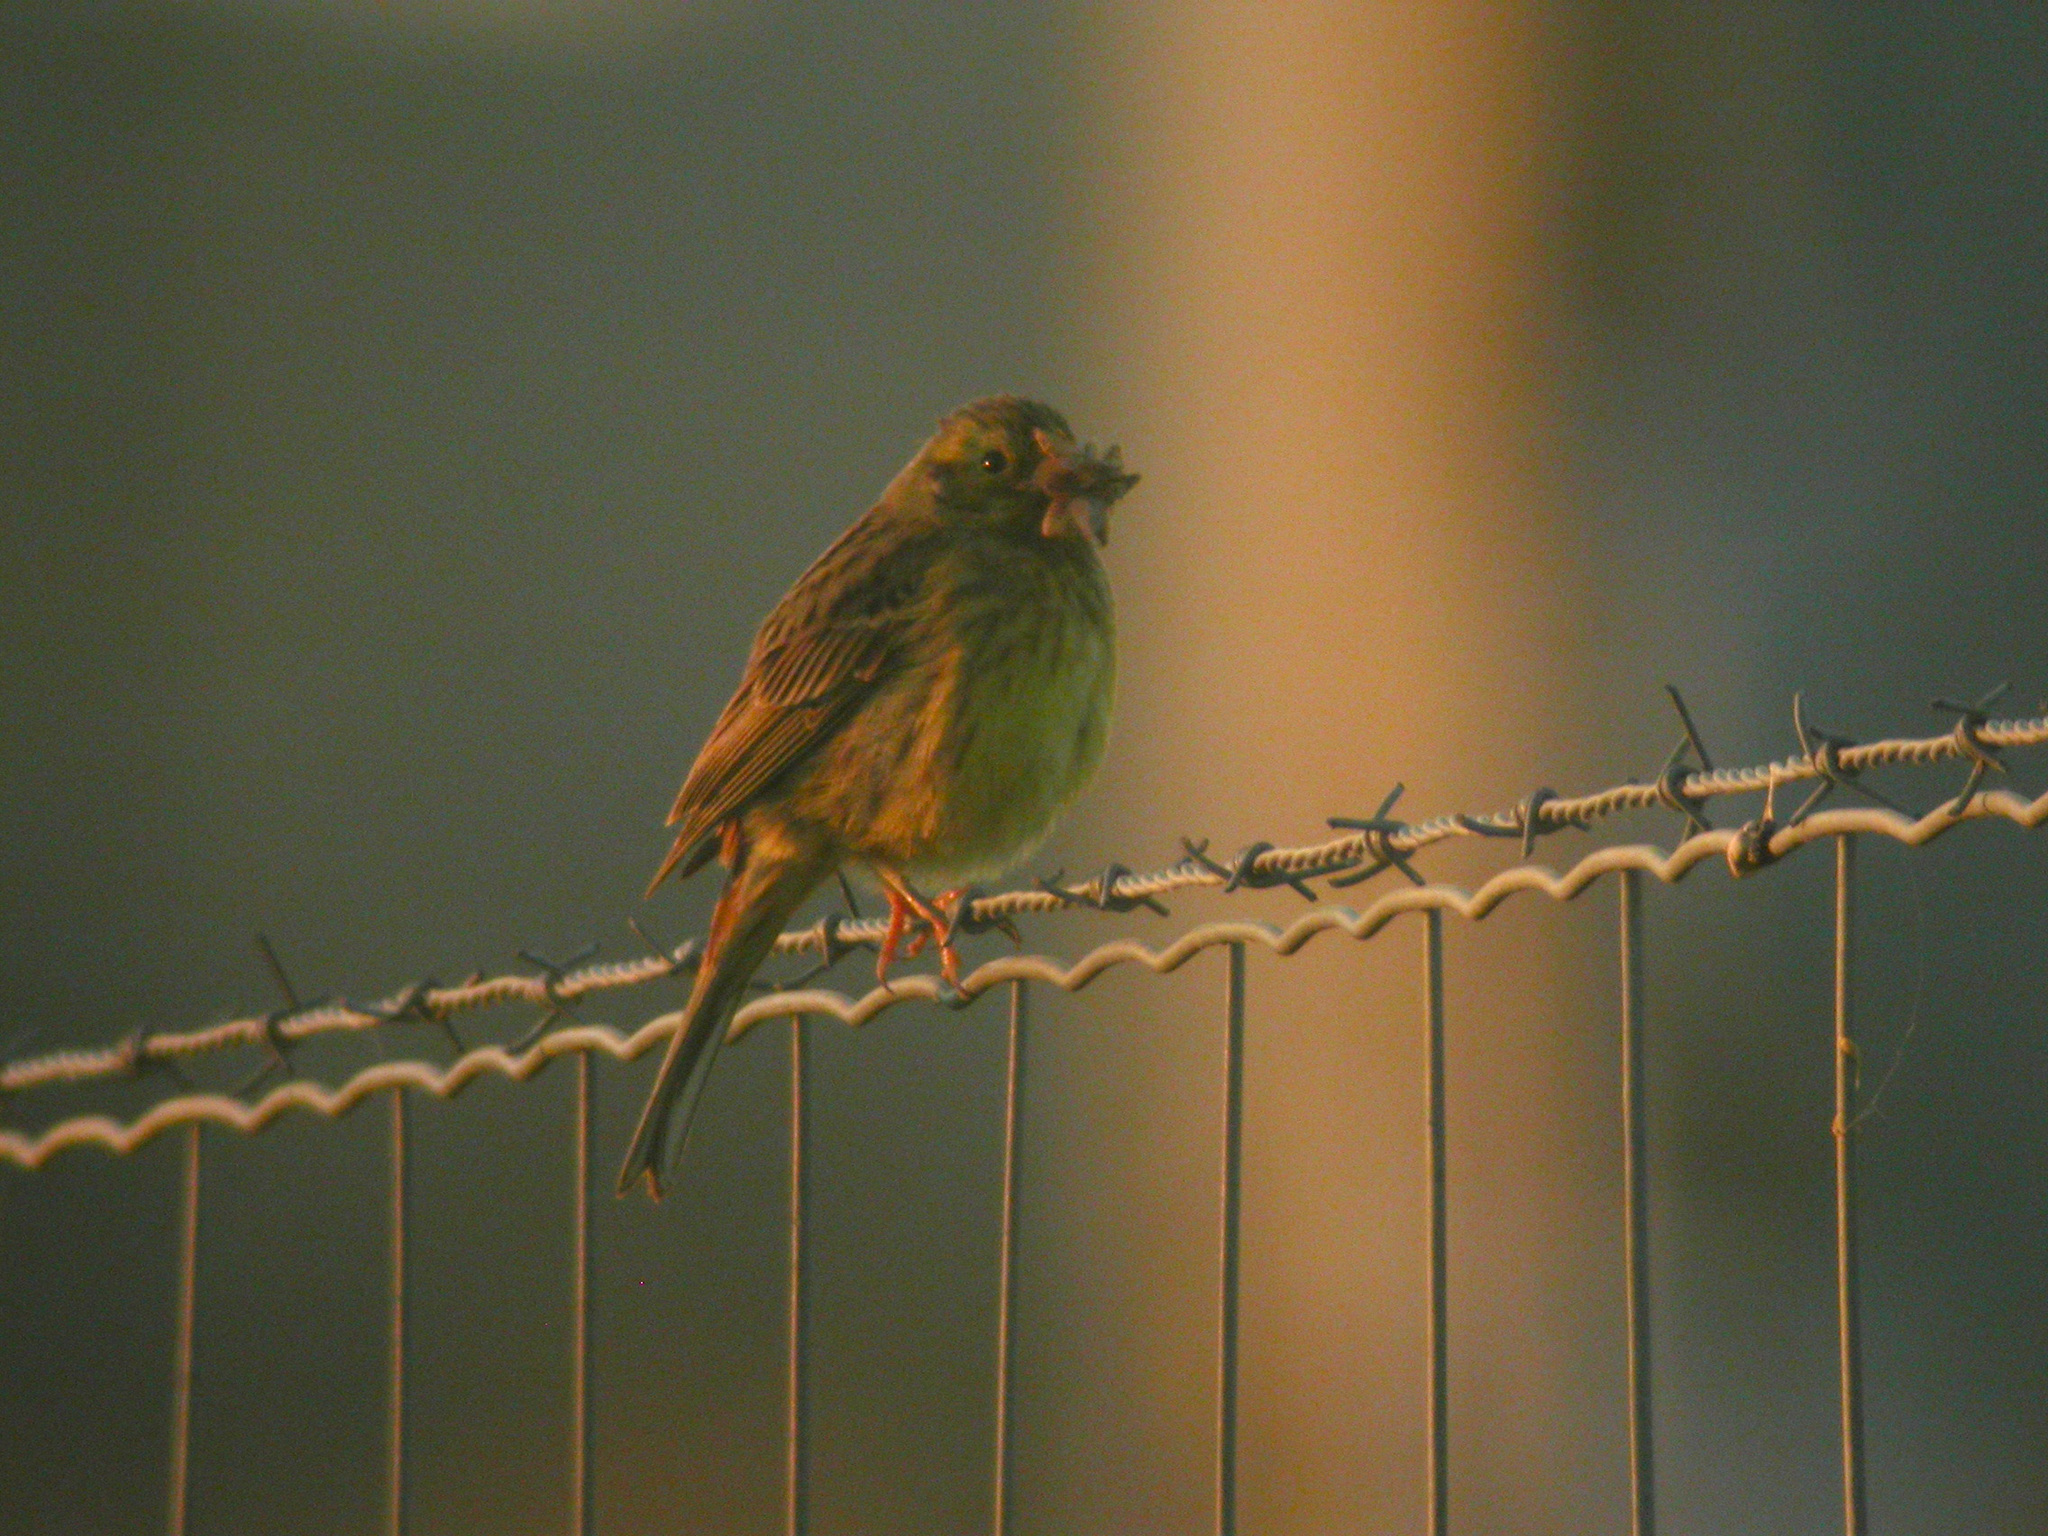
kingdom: Animalia
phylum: Chordata
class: Aves
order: Passeriformes
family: Emberizidae
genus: Emberiza
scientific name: Emberiza citrinella
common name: Yellowhammer
